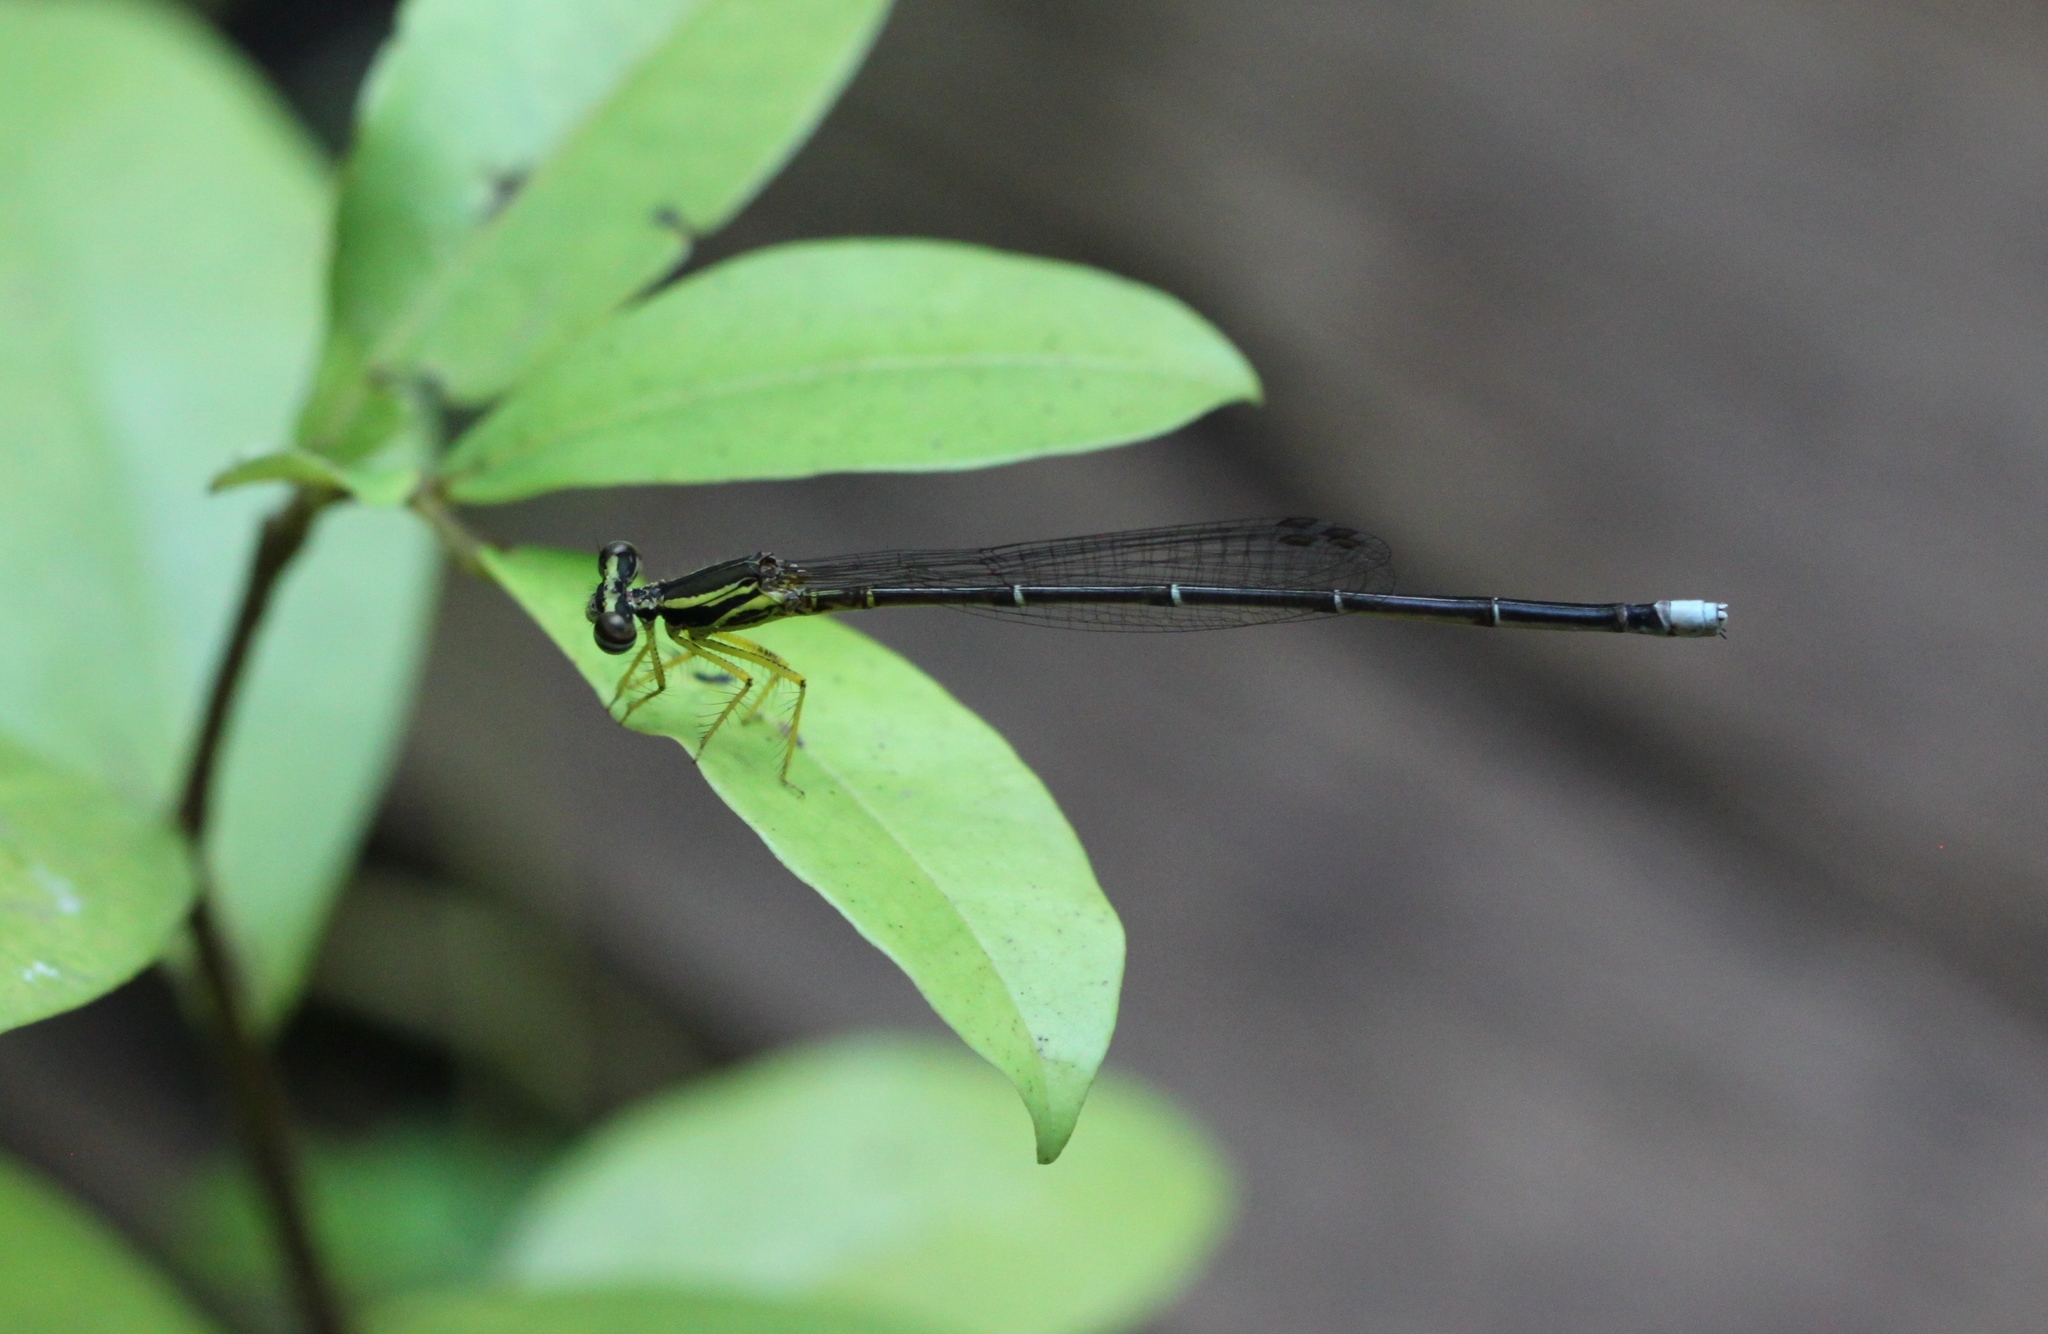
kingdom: Animalia
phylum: Arthropoda
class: Insecta
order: Odonata
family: Platycnemididae
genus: Copera
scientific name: Copera marginipes
